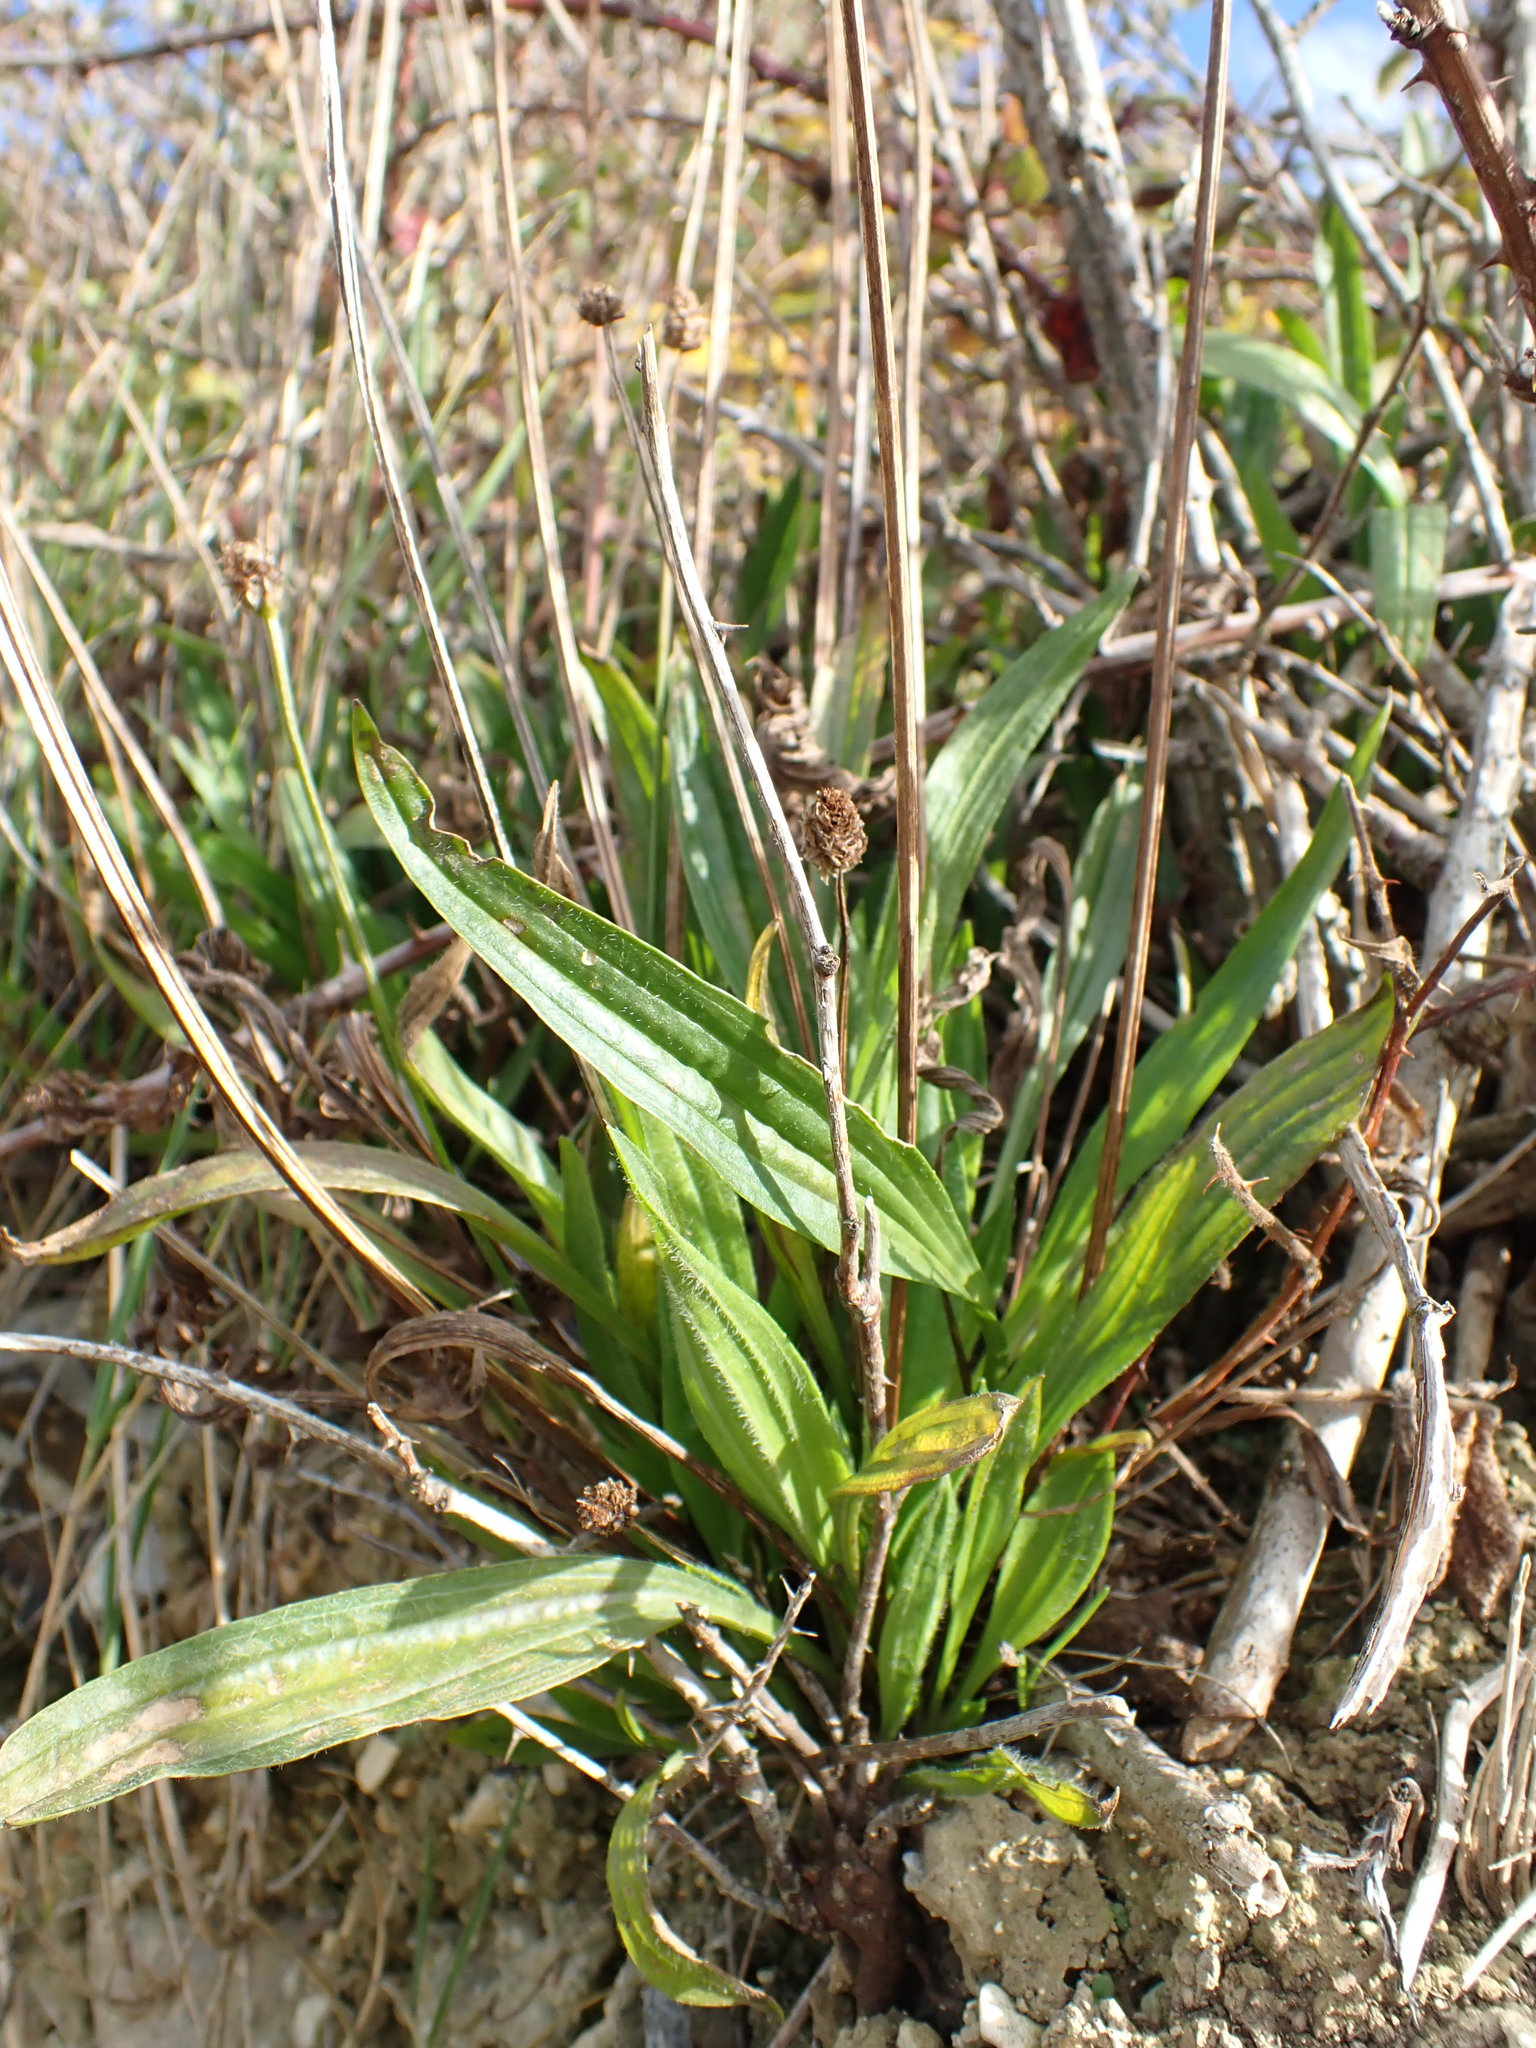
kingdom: Plantae
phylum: Tracheophyta
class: Magnoliopsida
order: Lamiales
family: Plantaginaceae
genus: Plantago
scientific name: Plantago lanceolata
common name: Ribwort plantain
